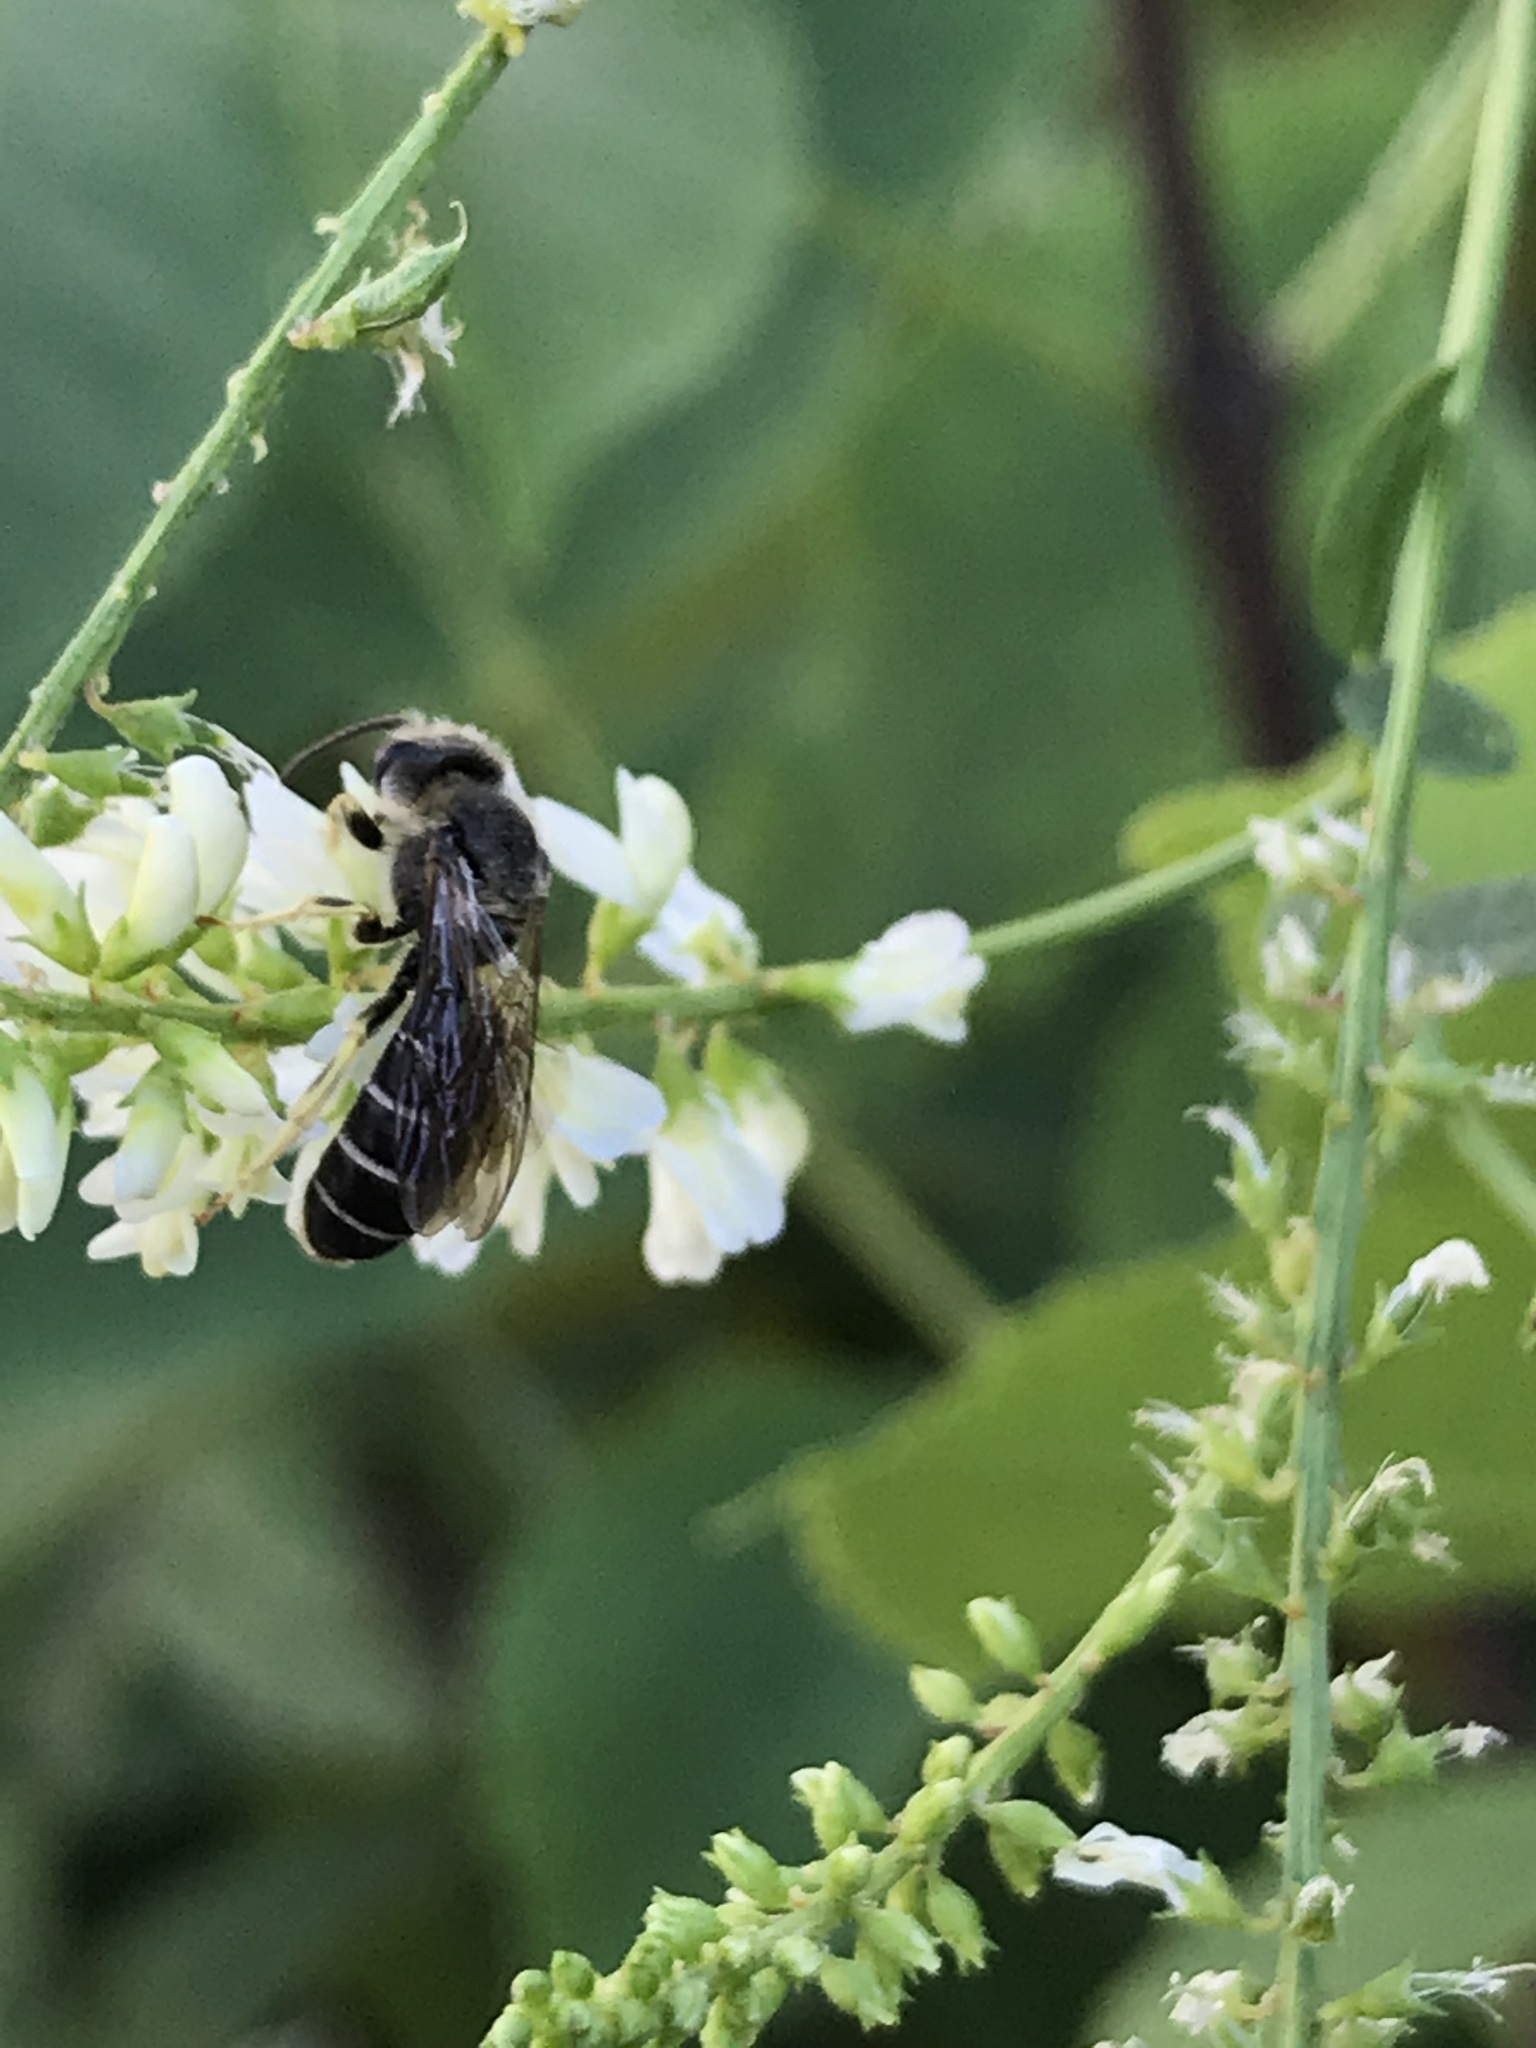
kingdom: Animalia
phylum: Arthropoda
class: Insecta
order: Hymenoptera
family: Halictidae
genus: Halictus
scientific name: Halictus rubicundus
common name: Orange-legged furrow bee
